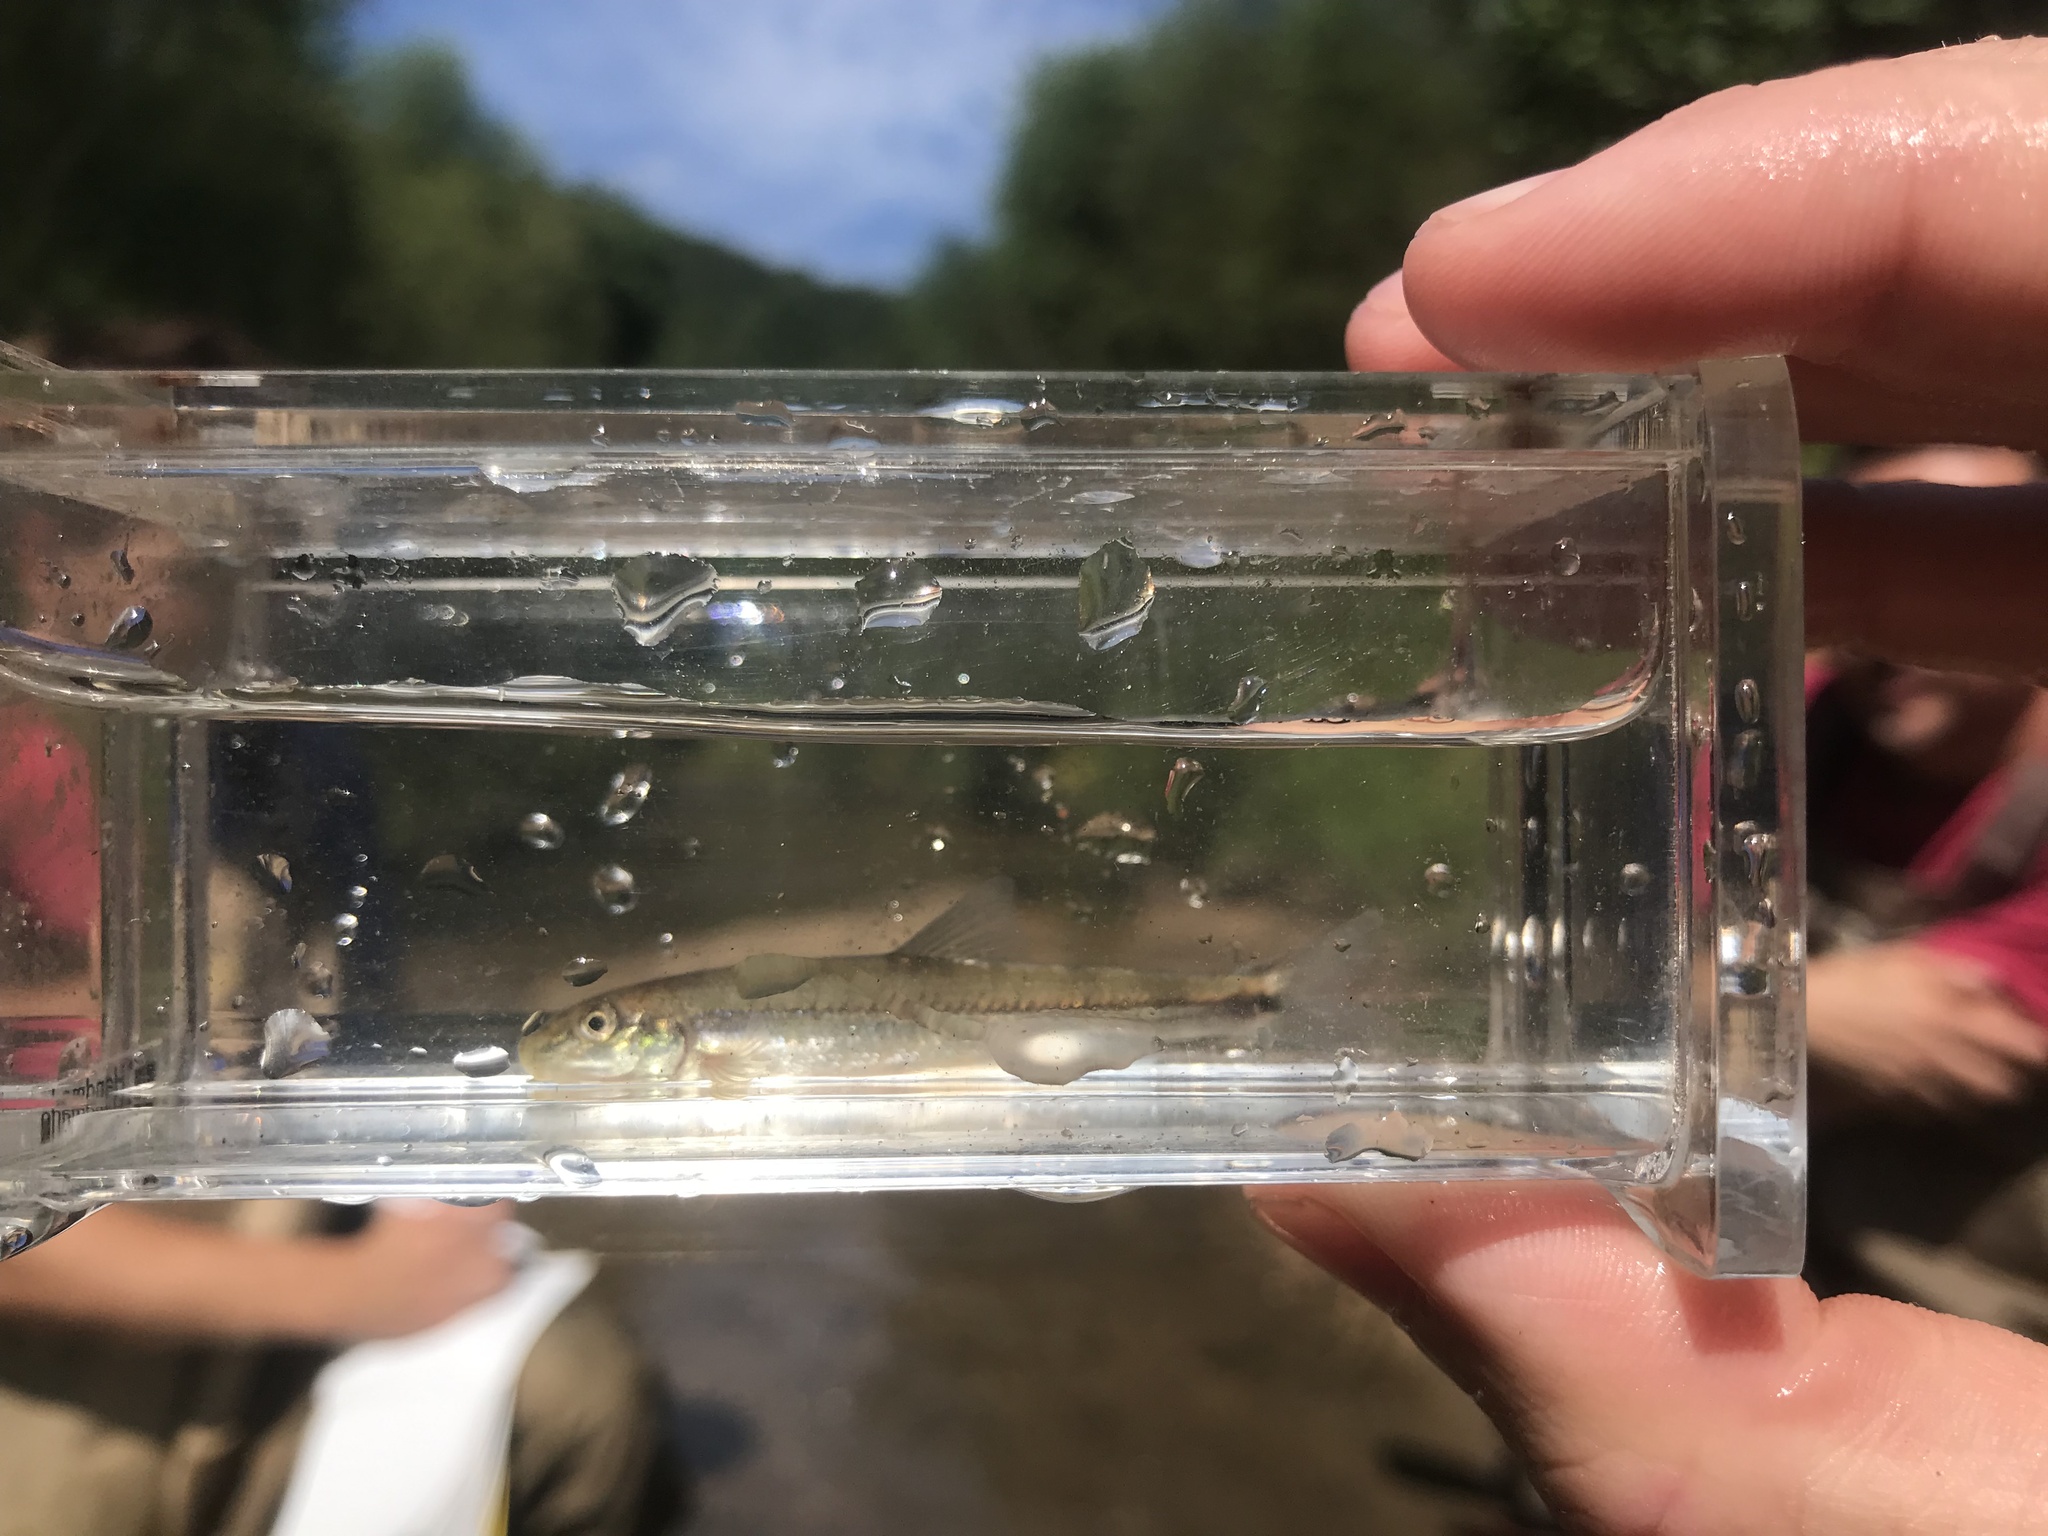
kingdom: Animalia
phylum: Chordata
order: Cypriniformes
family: Cyprinidae
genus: Phenacobius
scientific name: Phenacobius crassilabrum
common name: Fatlips minnow
